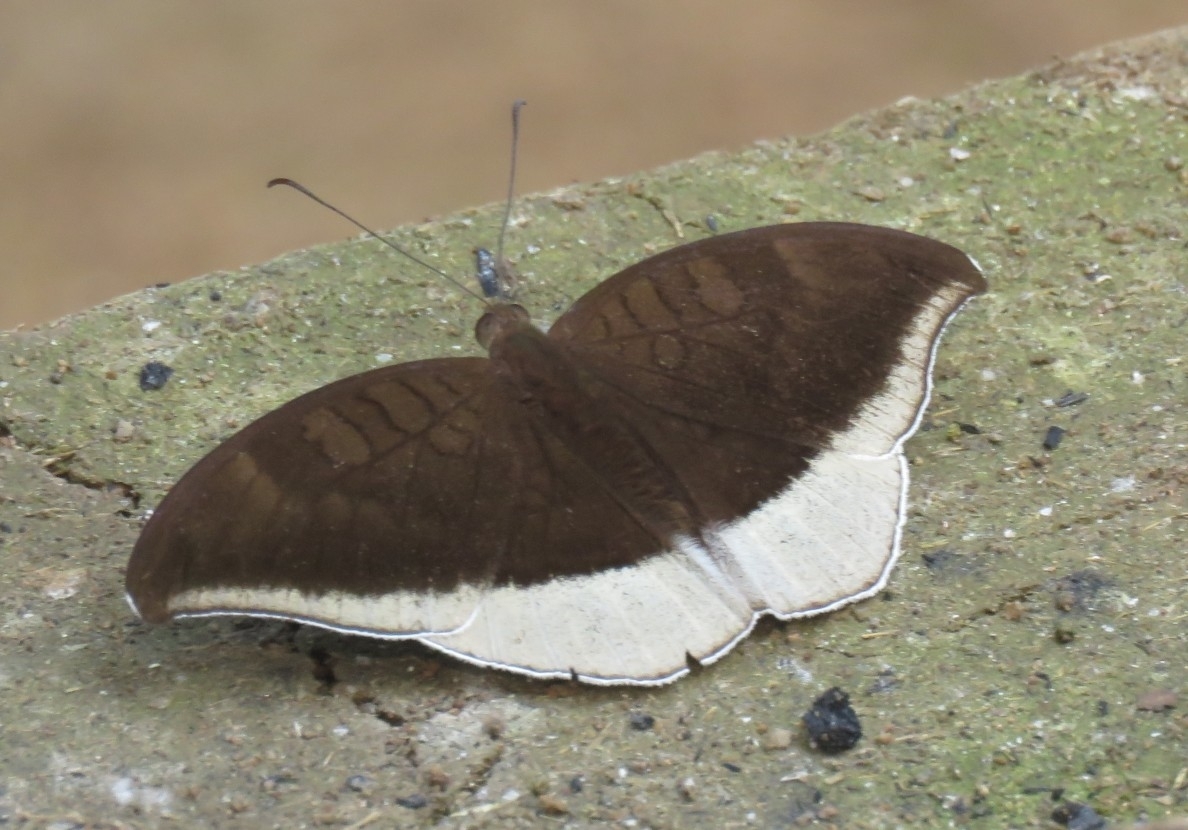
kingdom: Animalia
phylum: Arthropoda
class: Insecta
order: Lepidoptera
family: Nymphalidae
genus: Tanaecia
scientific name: Tanaecia lepidea
